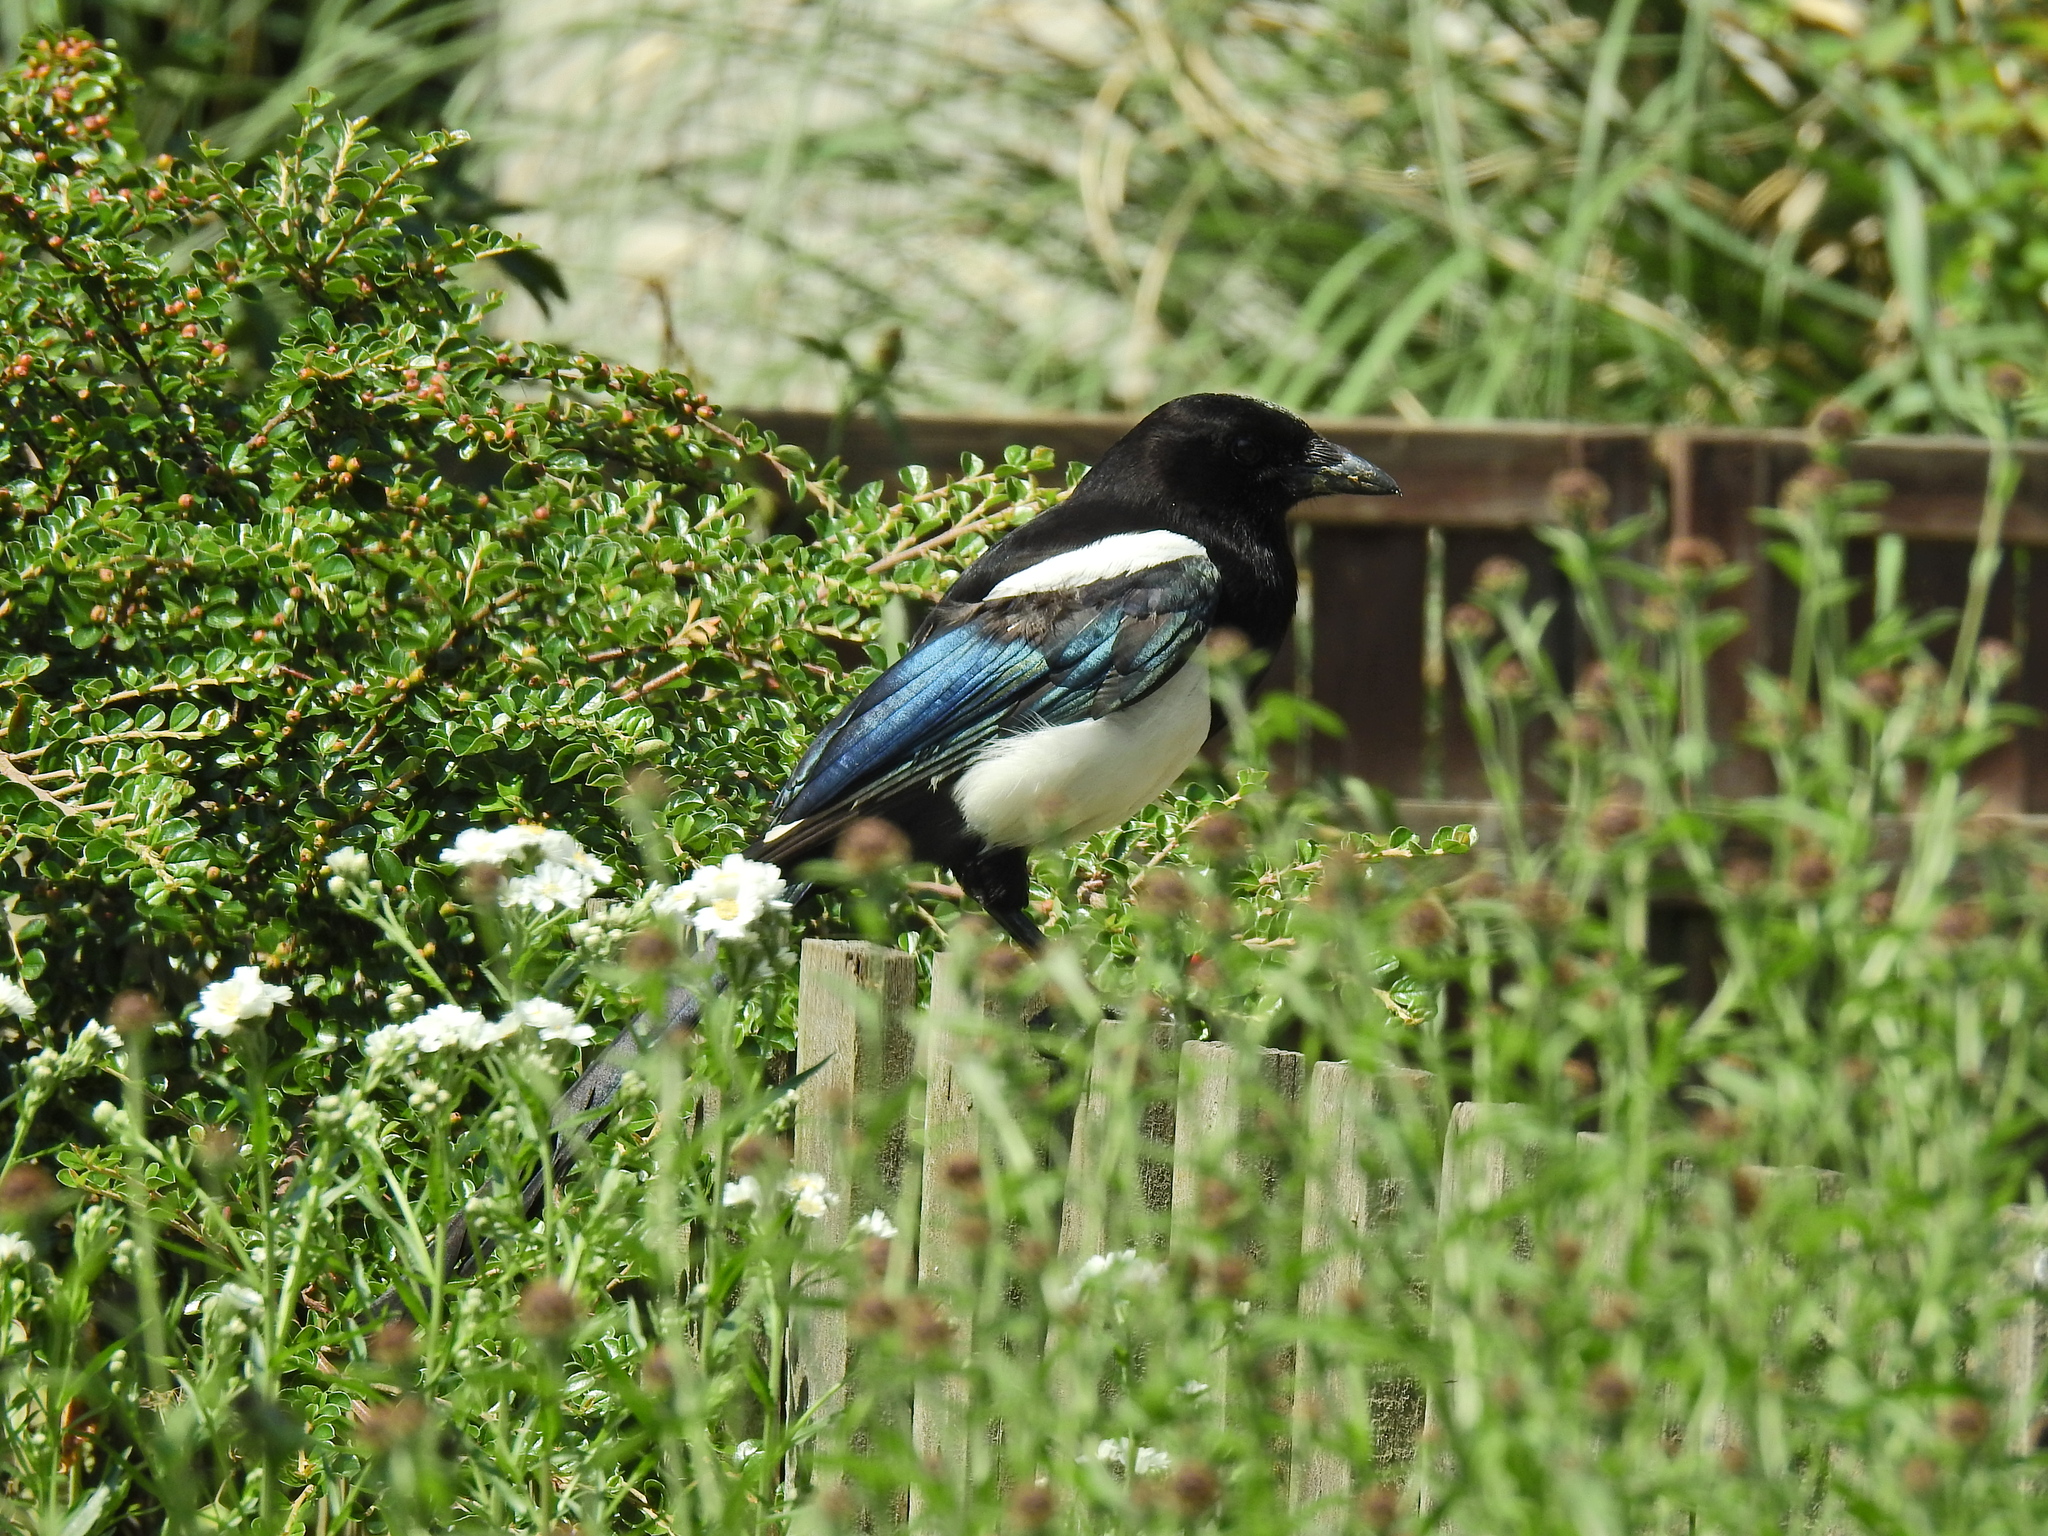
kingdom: Animalia
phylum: Chordata
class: Aves
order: Passeriformes
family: Corvidae
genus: Pica
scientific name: Pica pica
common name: Eurasian magpie
